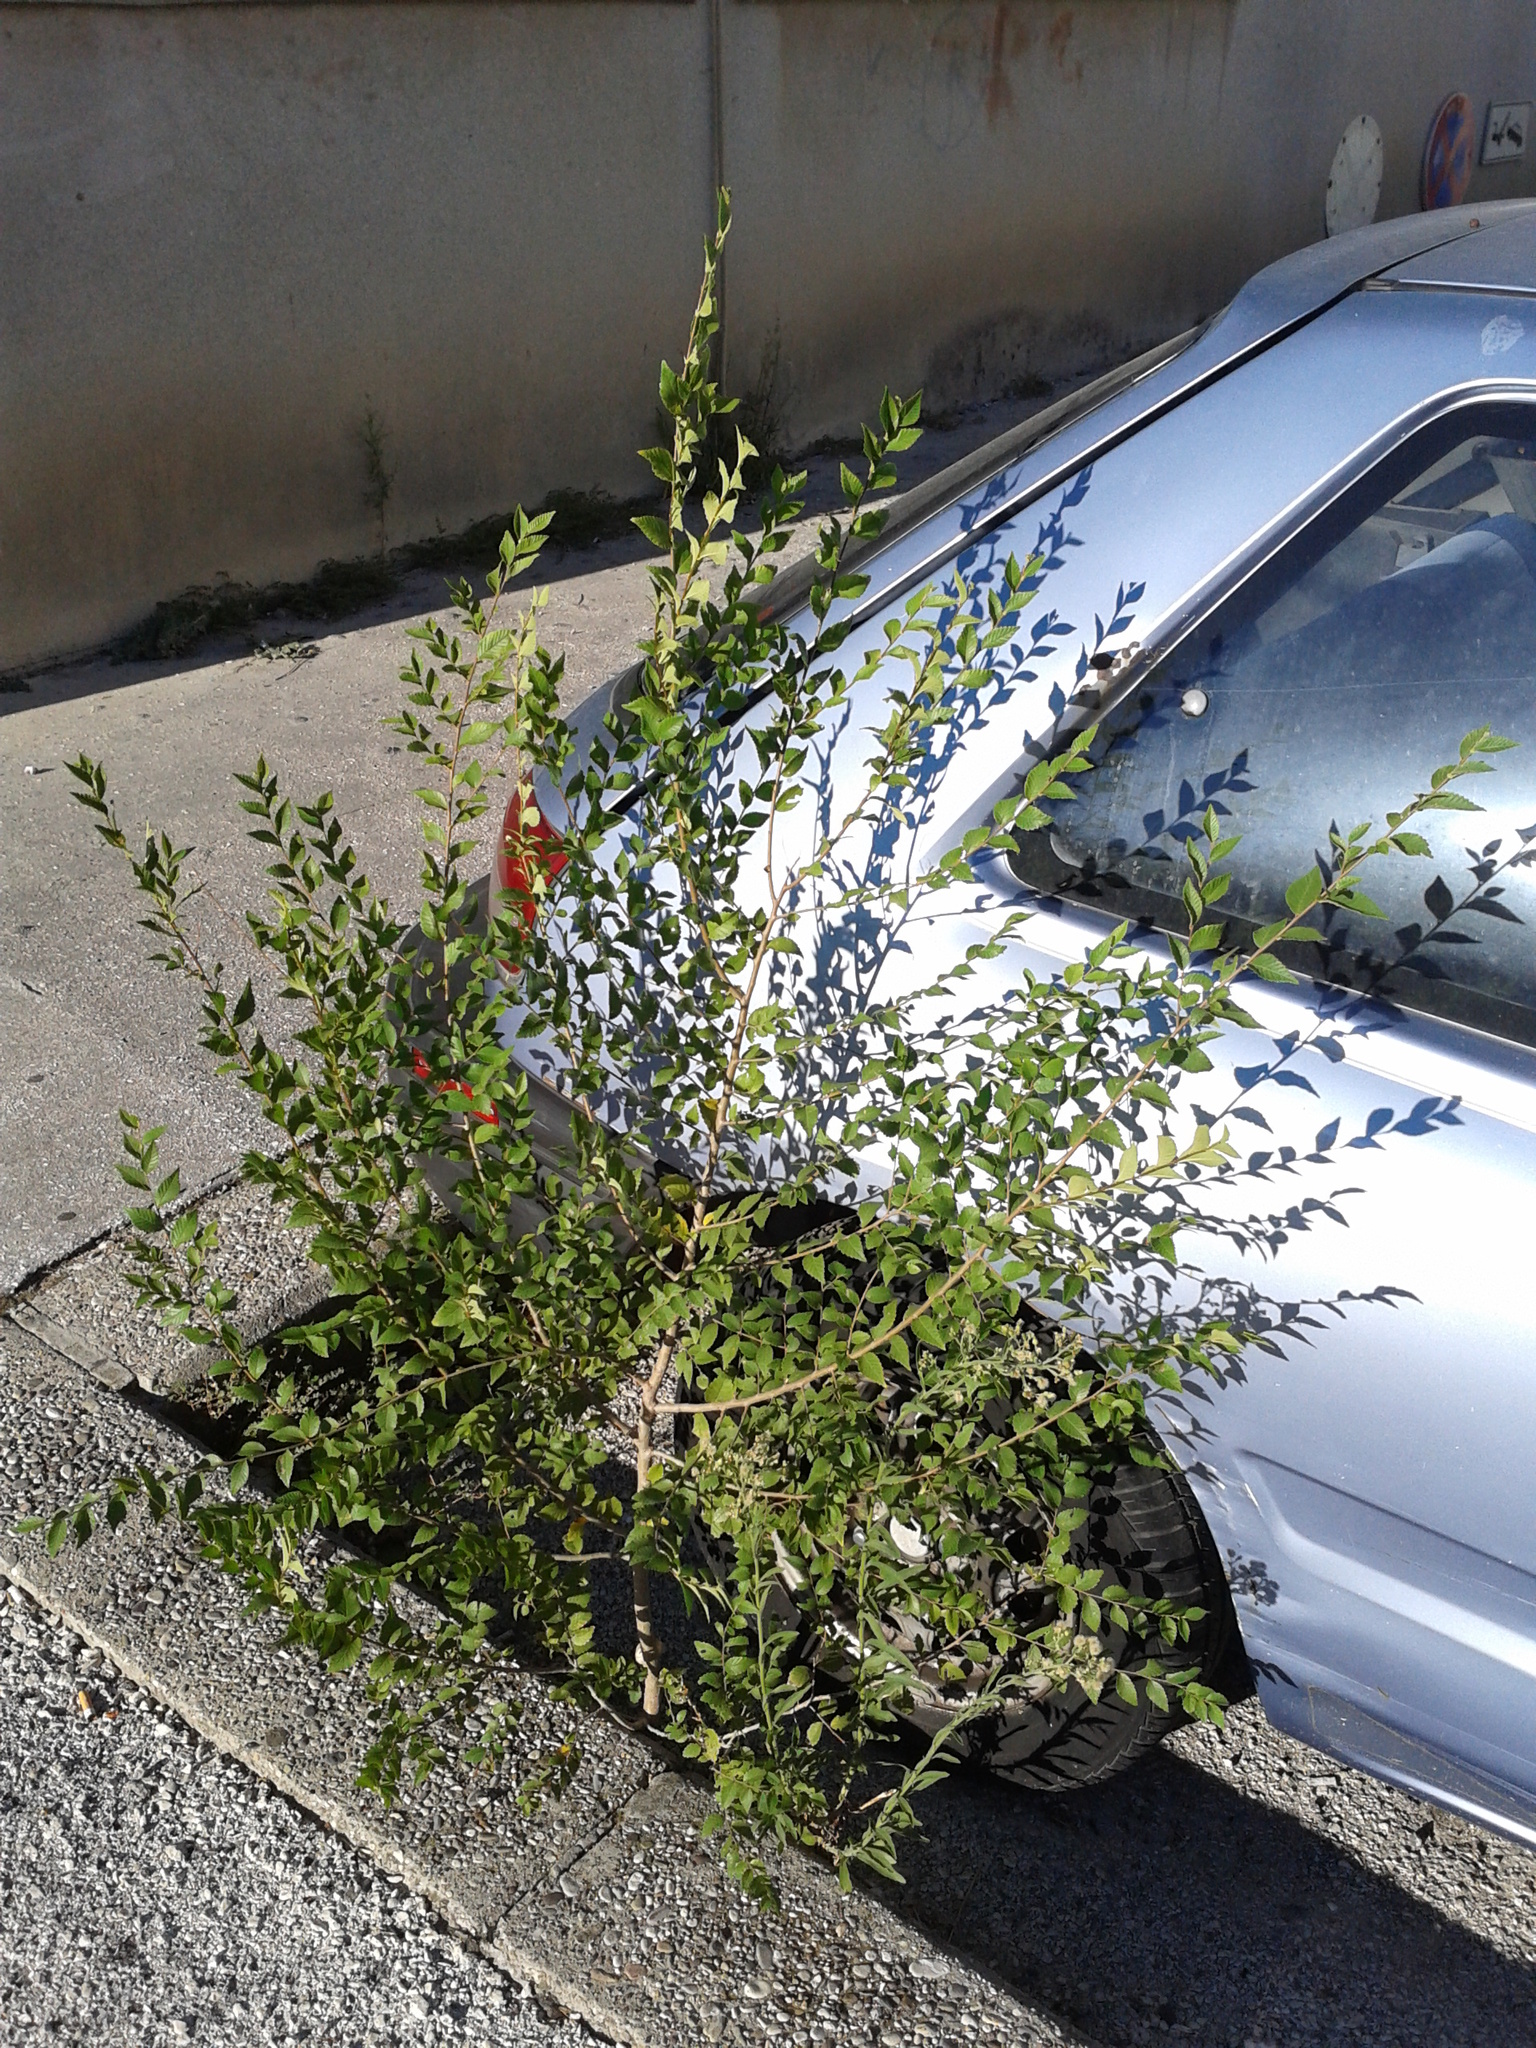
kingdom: Plantae
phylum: Tracheophyta
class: Magnoliopsida
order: Rosales
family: Ulmaceae
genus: Ulmus
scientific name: Ulmus minor
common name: Small-leaved elm
